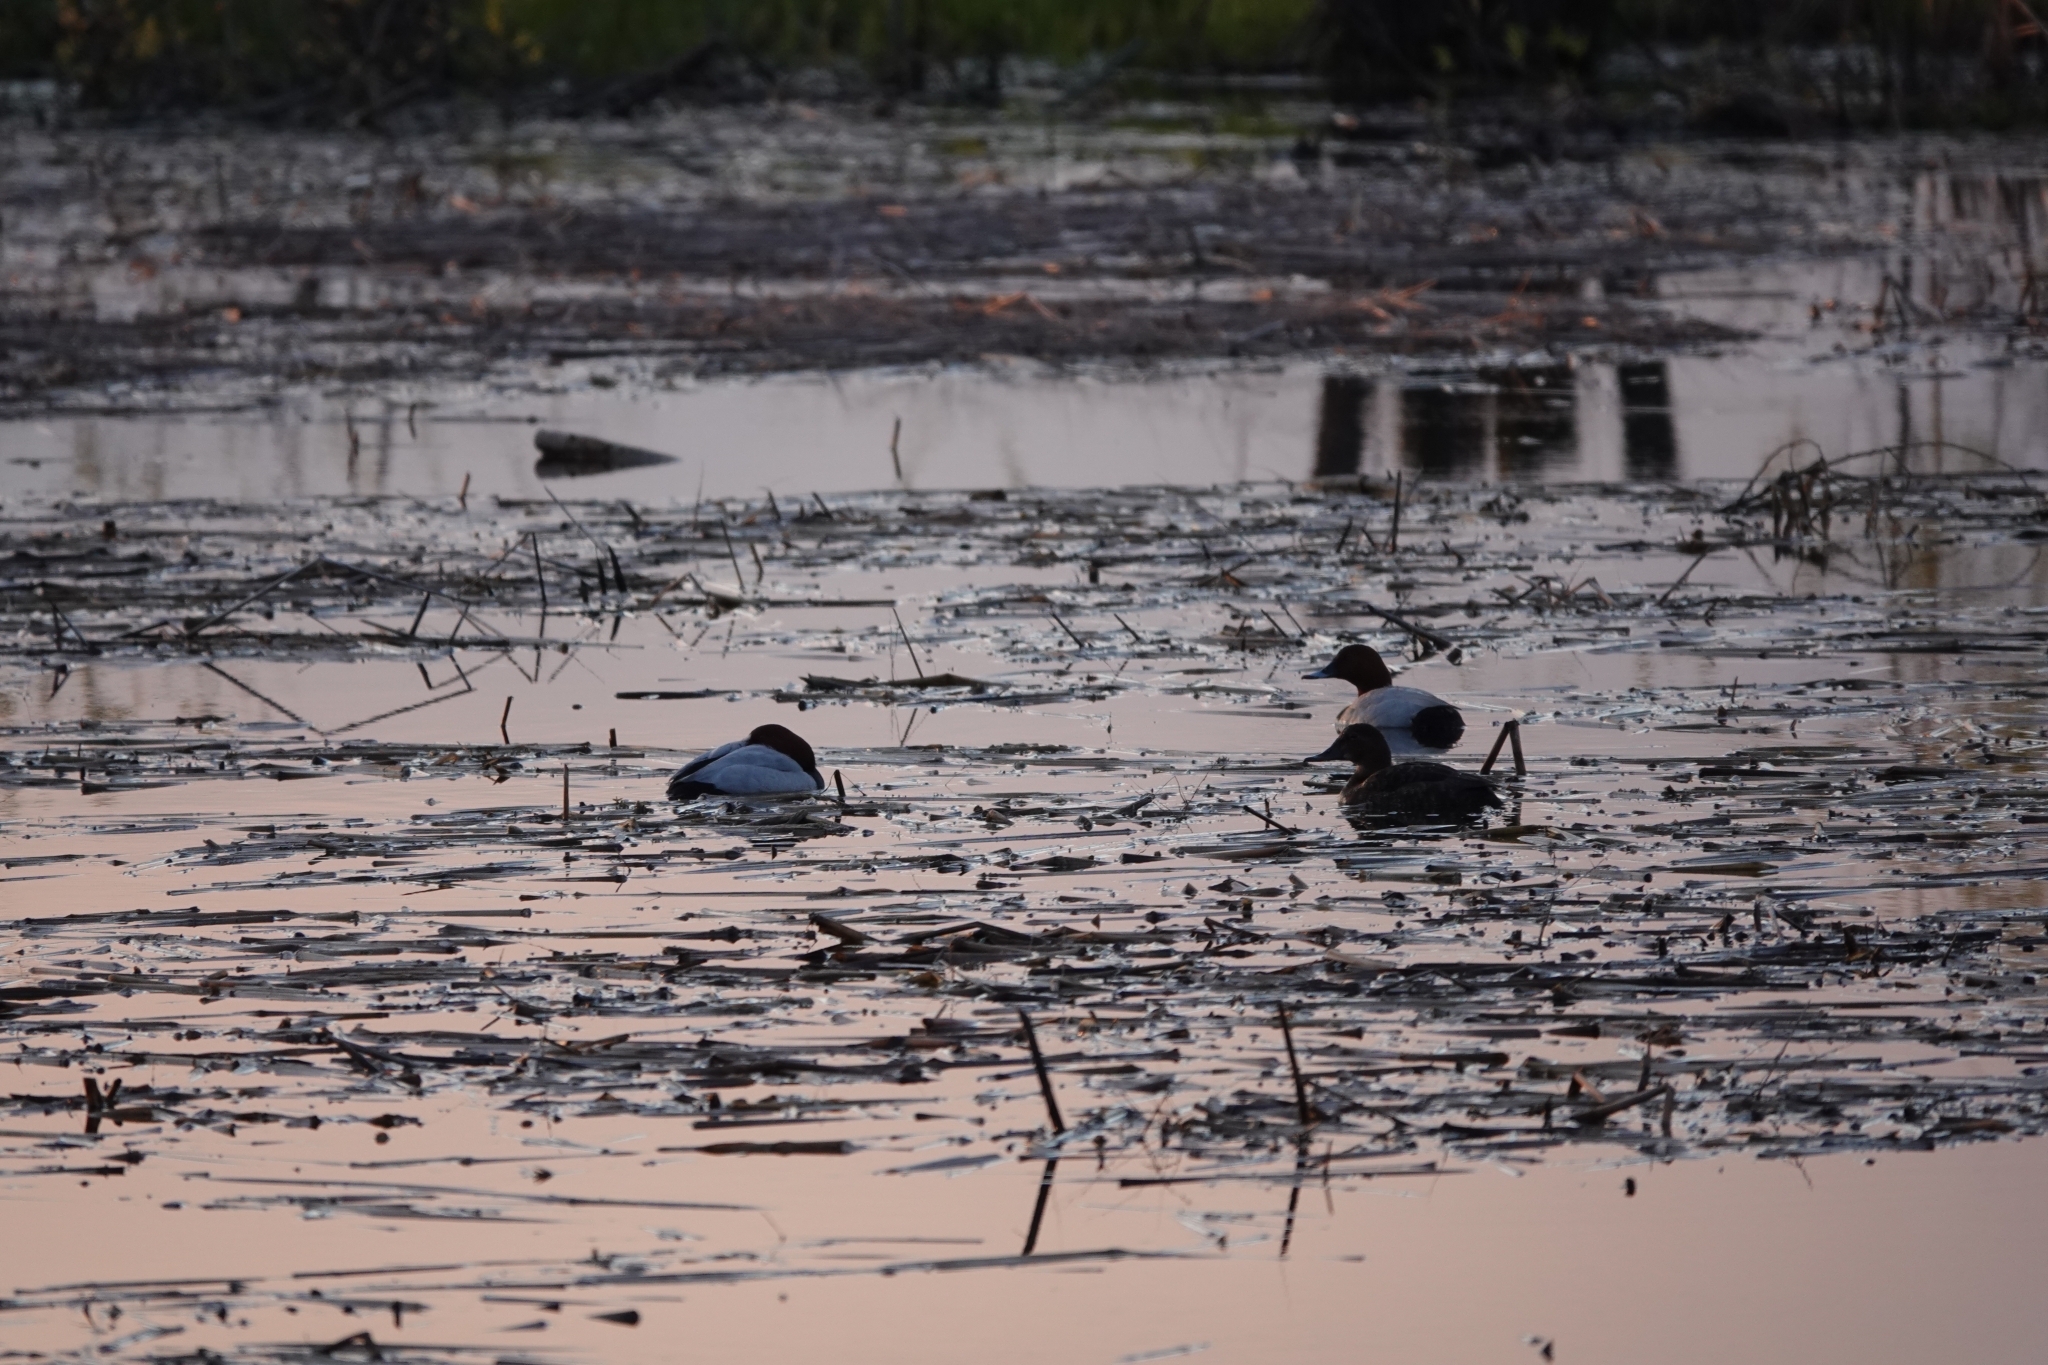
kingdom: Animalia
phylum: Chordata
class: Aves
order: Anseriformes
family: Anatidae
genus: Aythya
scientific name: Aythya ferina
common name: Common pochard
